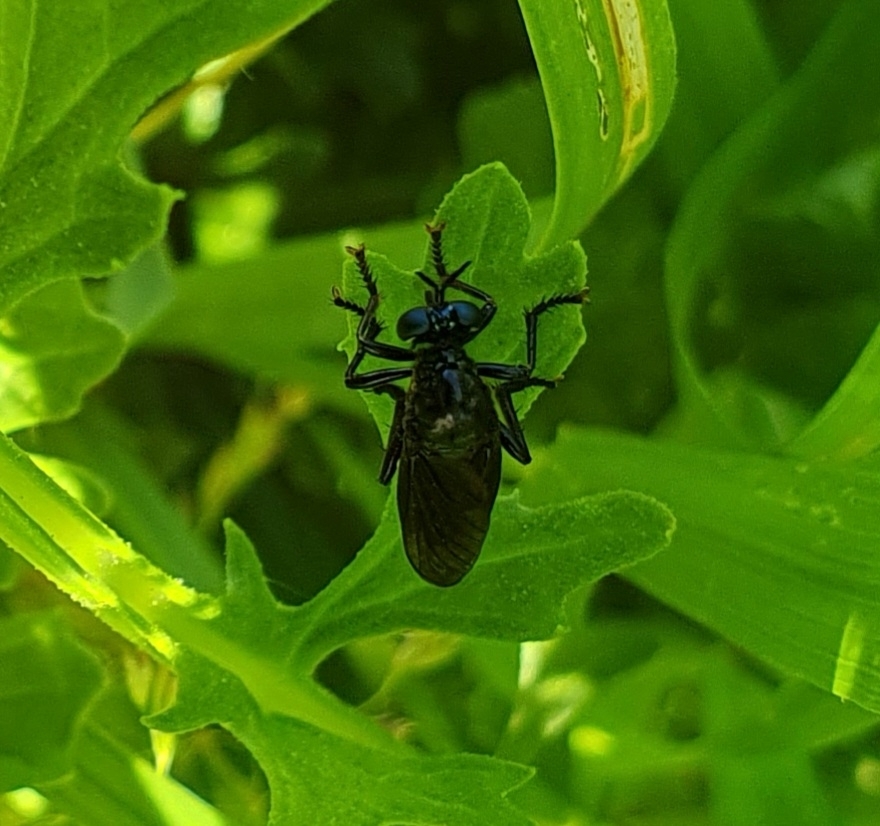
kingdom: Animalia
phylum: Arthropoda
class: Insecta
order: Diptera
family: Asilidae
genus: Dioctria
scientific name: Dioctria atricapilla
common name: Violet black-legged
